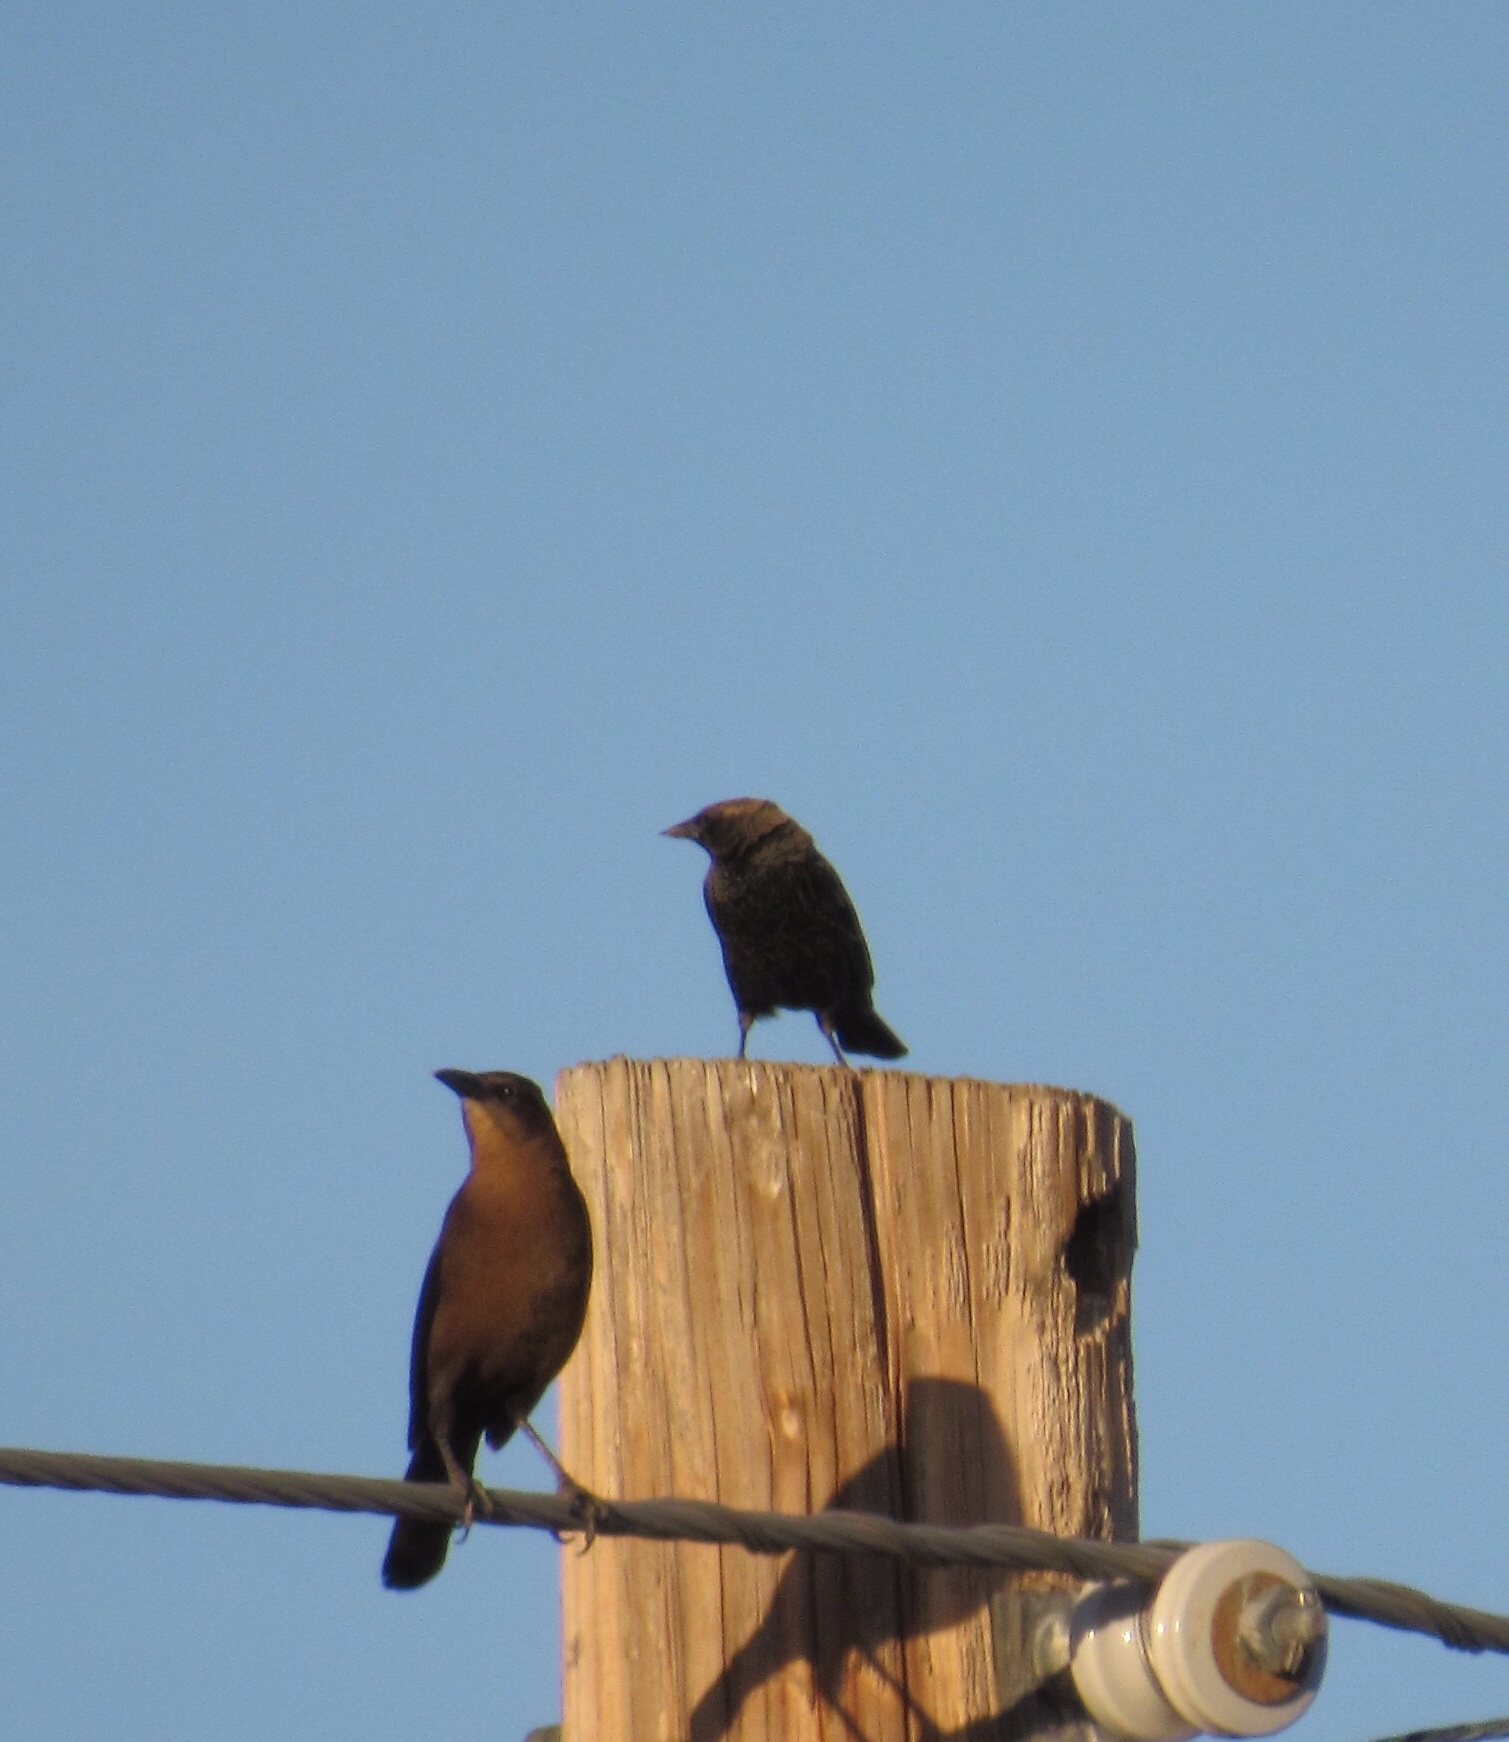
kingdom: Animalia
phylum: Chordata
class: Aves
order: Passeriformes
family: Icteridae
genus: Quiscalus
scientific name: Quiscalus mexicanus
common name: Great-tailed grackle
